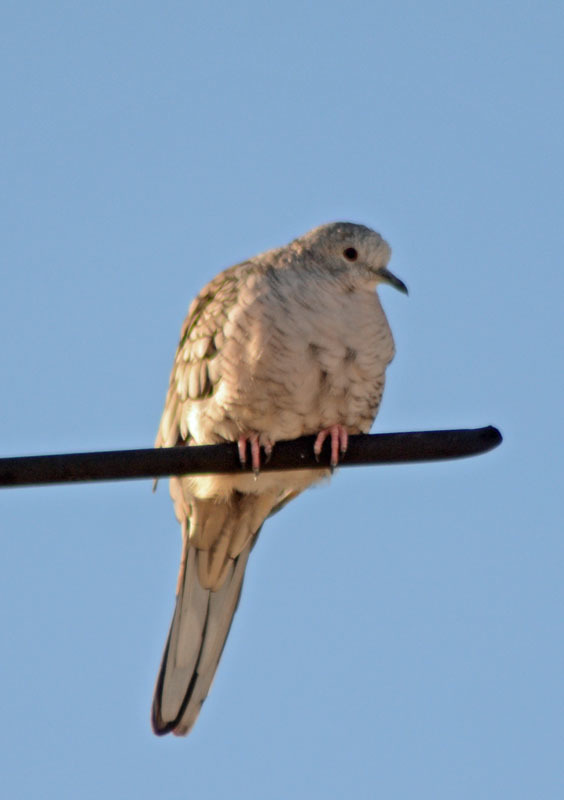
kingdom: Animalia
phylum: Chordata
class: Aves
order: Columbiformes
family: Columbidae
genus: Columbina
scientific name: Columbina inca
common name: Inca dove
